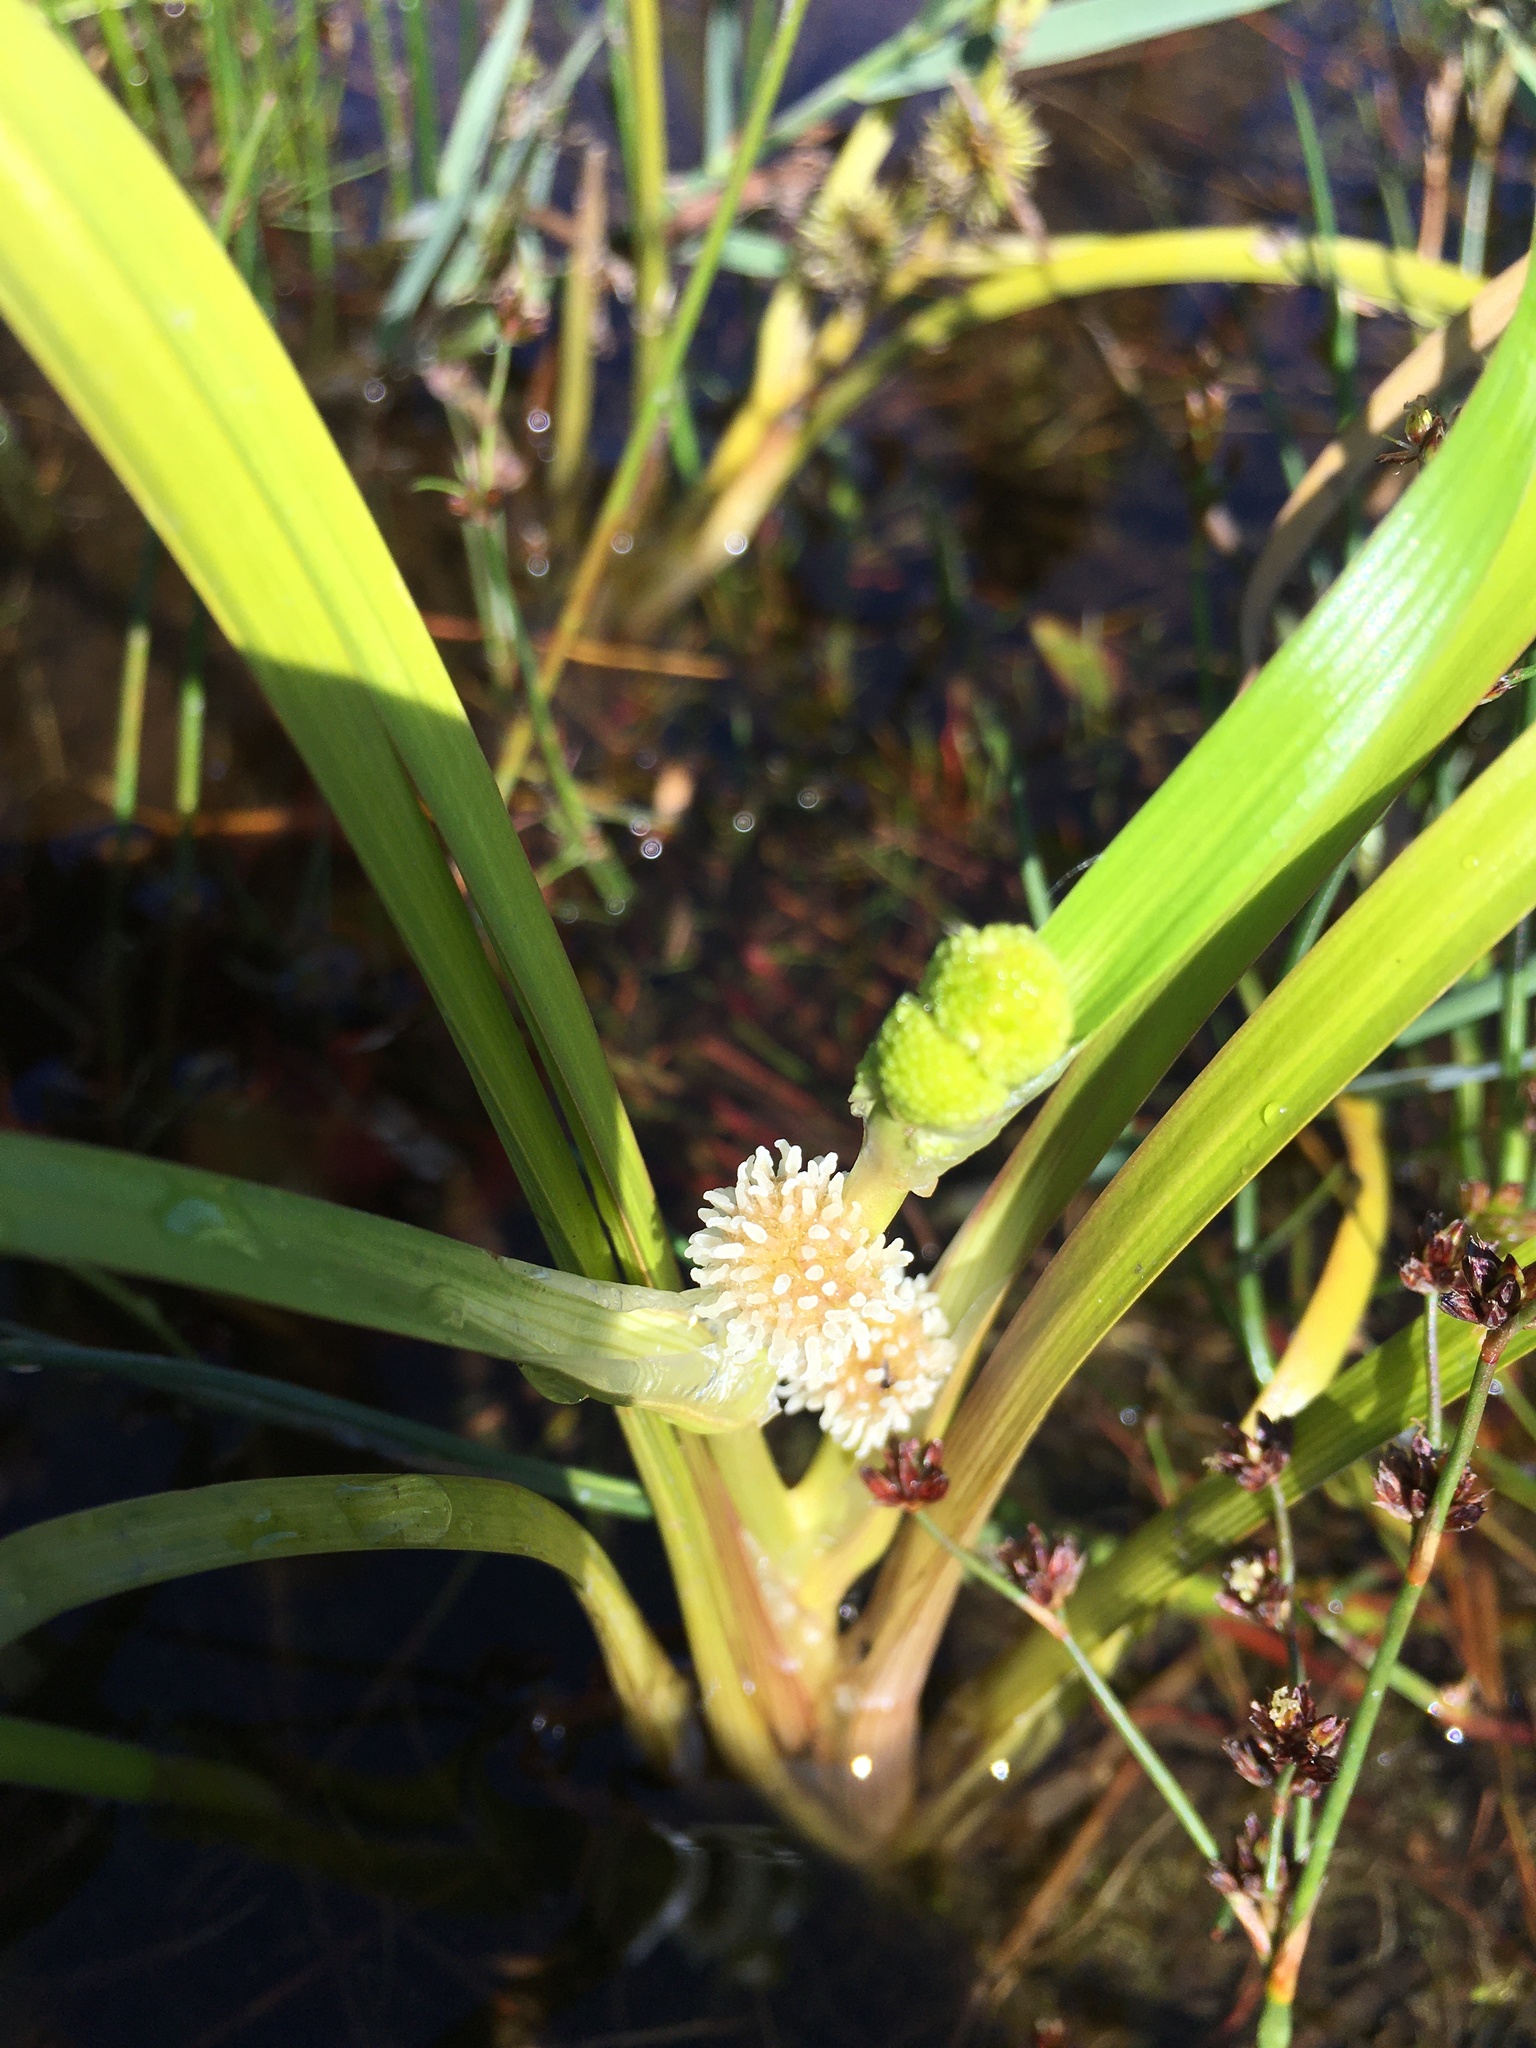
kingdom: Plantae
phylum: Tracheophyta
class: Liliopsida
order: Poales
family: Typhaceae
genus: Sparganium
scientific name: Sparganium emersum
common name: Unbranched bur-reed
